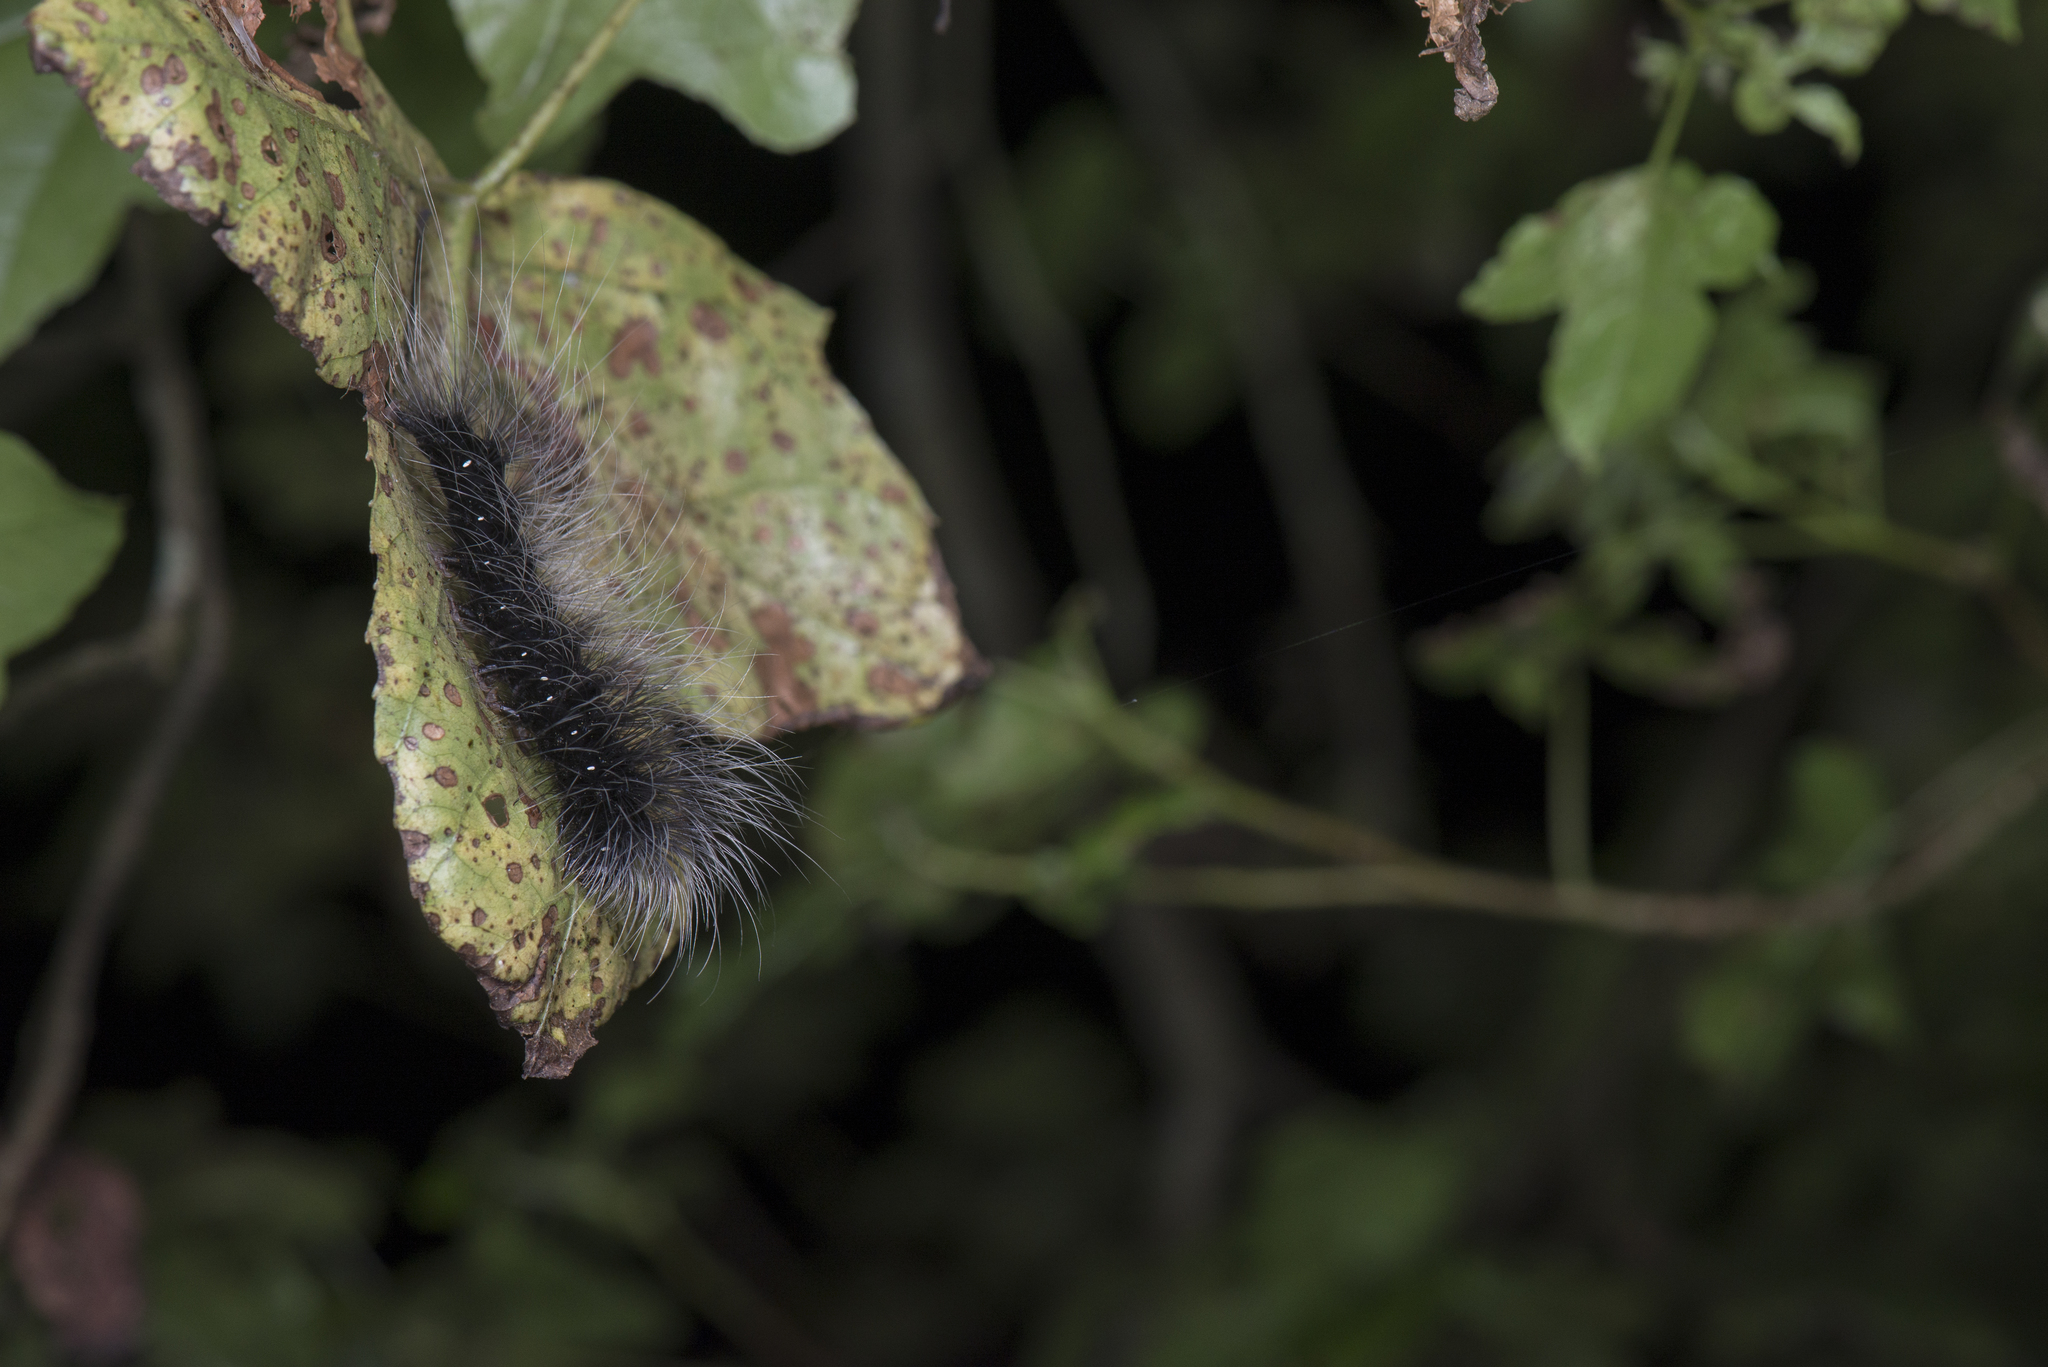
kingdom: Animalia
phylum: Arthropoda
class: Insecta
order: Lepidoptera
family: Erebidae
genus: Macrobrochis
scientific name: Macrobrochis gigas
